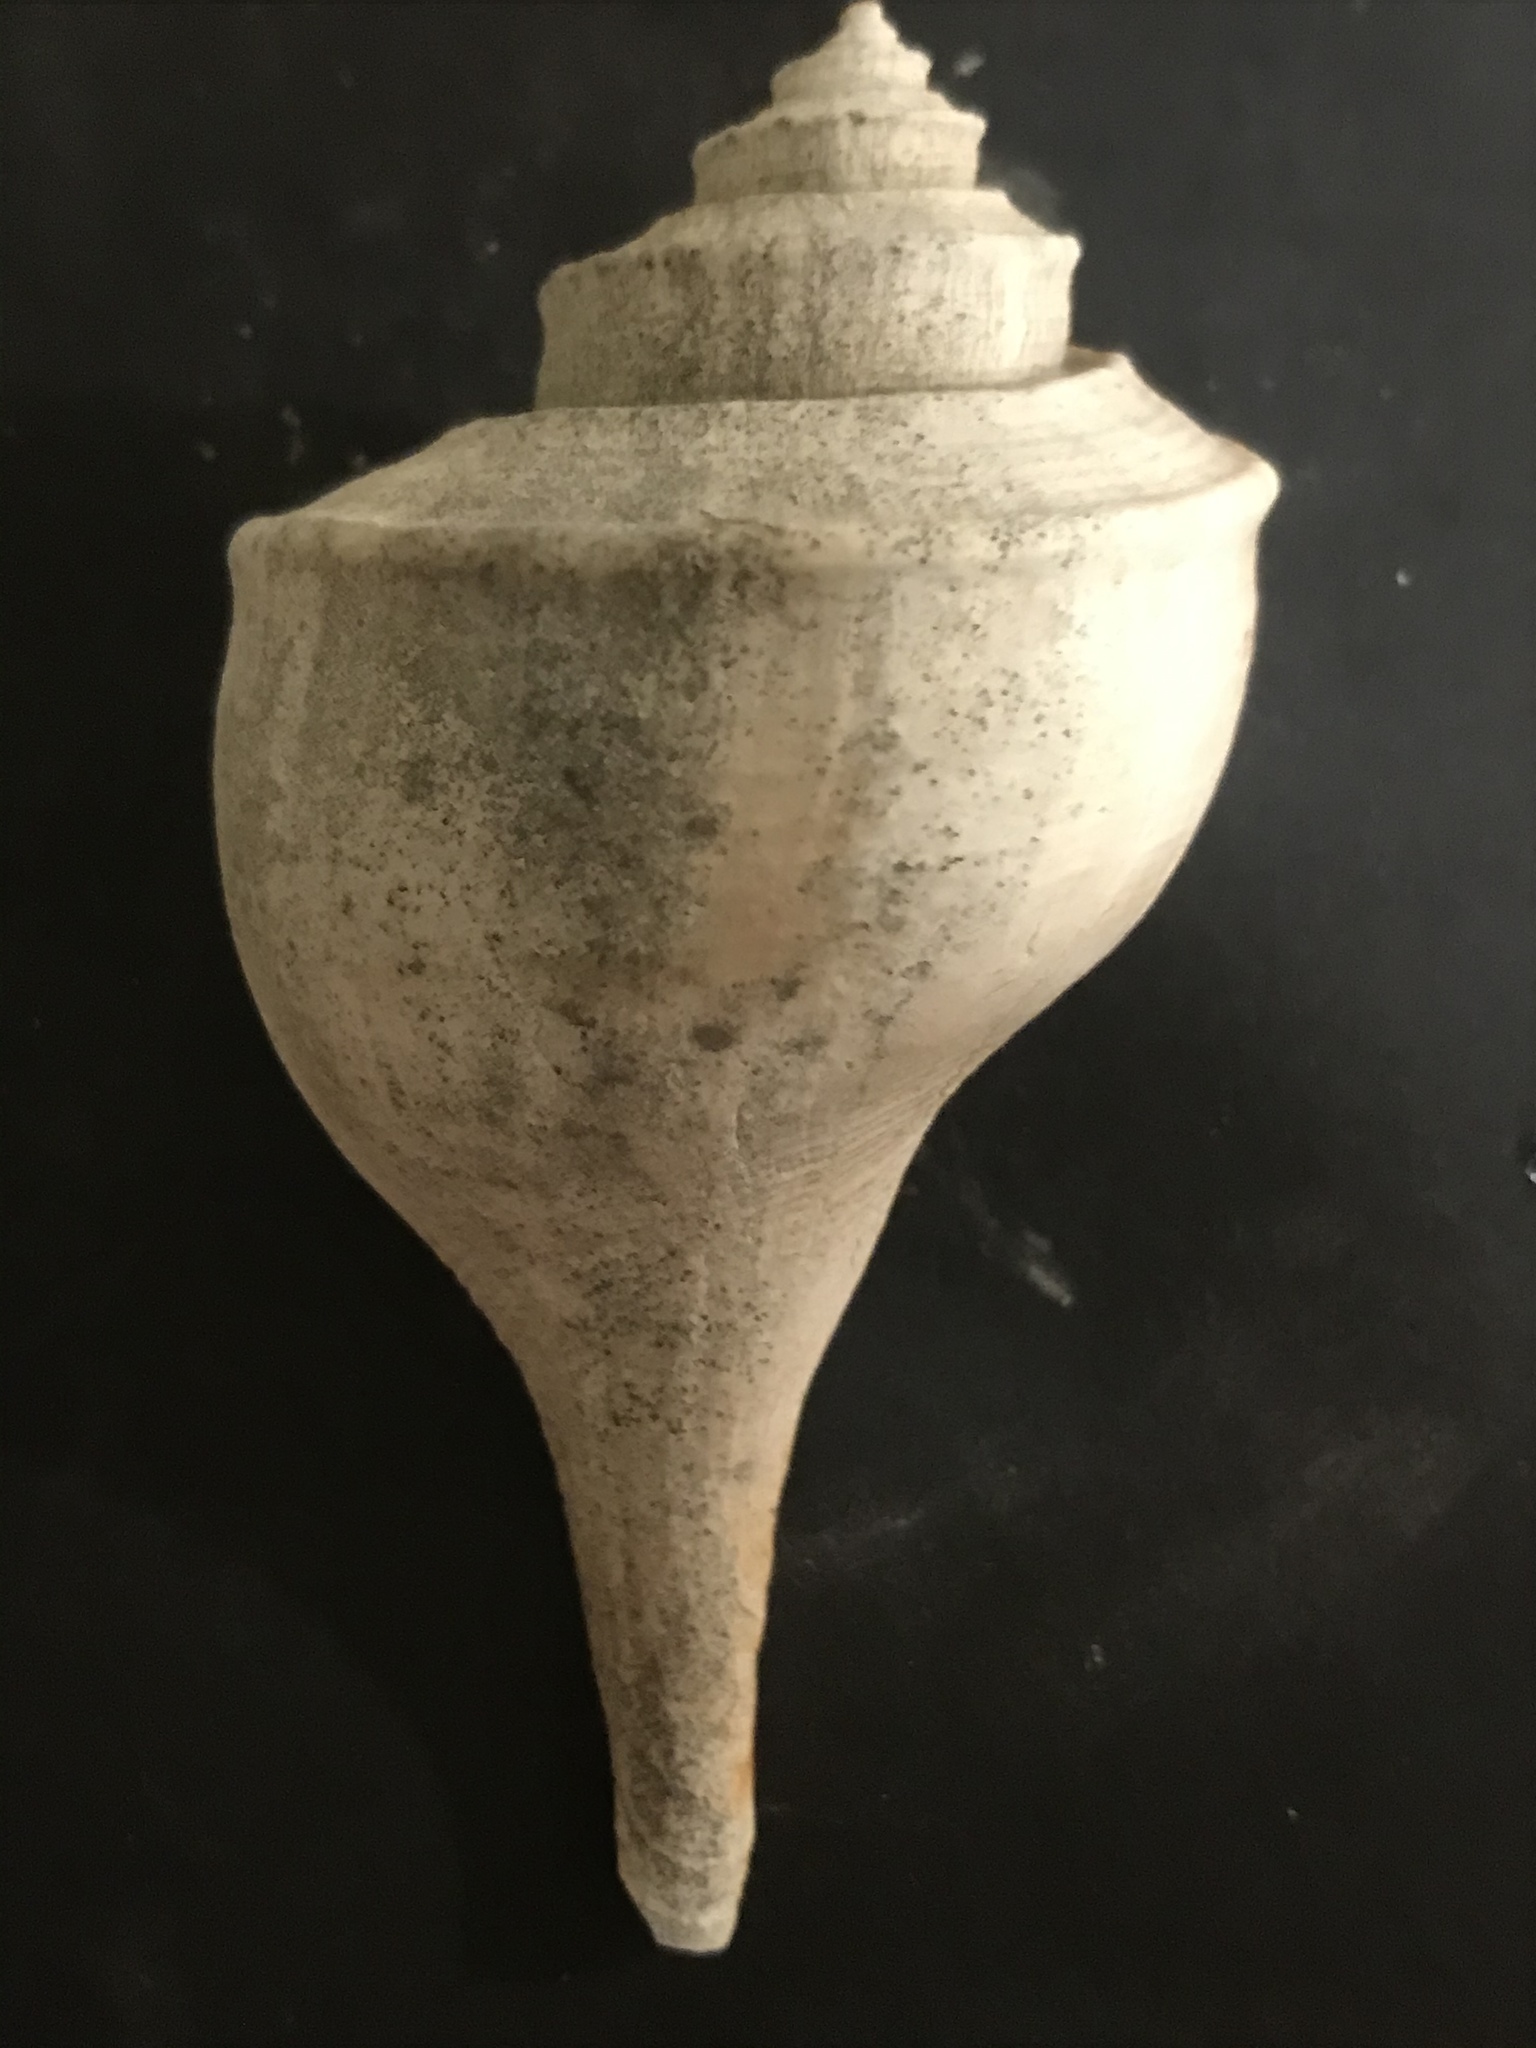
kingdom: Animalia
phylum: Mollusca
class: Gastropoda
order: Neogastropoda
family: Busyconidae
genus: Busycotypus
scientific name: Busycotypus canaliculatus
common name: Channeled whelk
